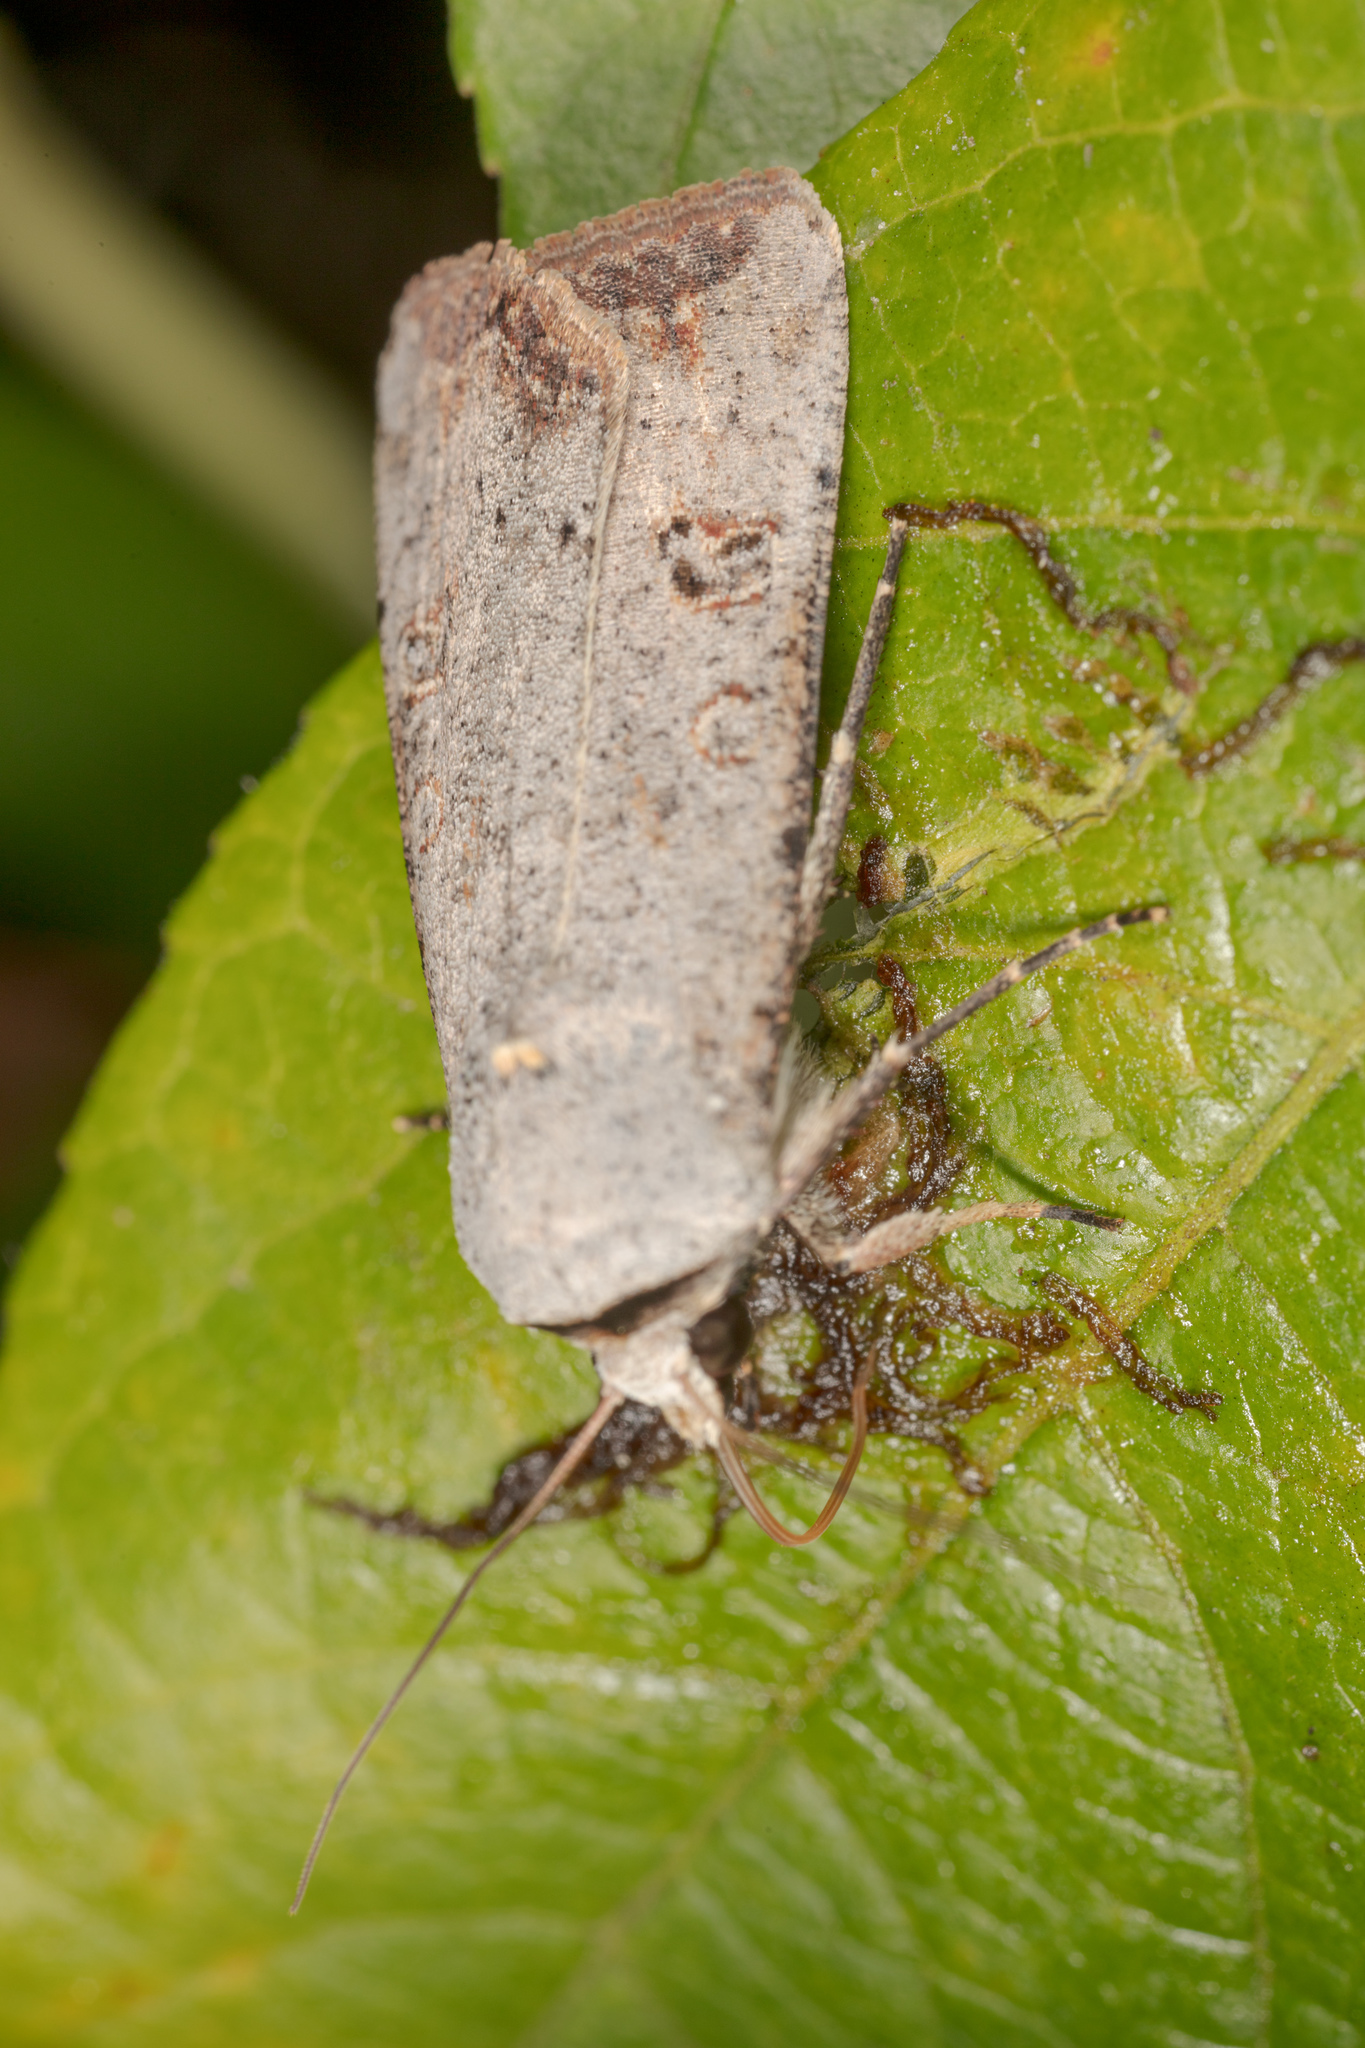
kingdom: Animalia
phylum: Arthropoda
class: Insecta
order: Lepidoptera
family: Noctuidae
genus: Anicla
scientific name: Anicla infecta
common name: Green cutworm
